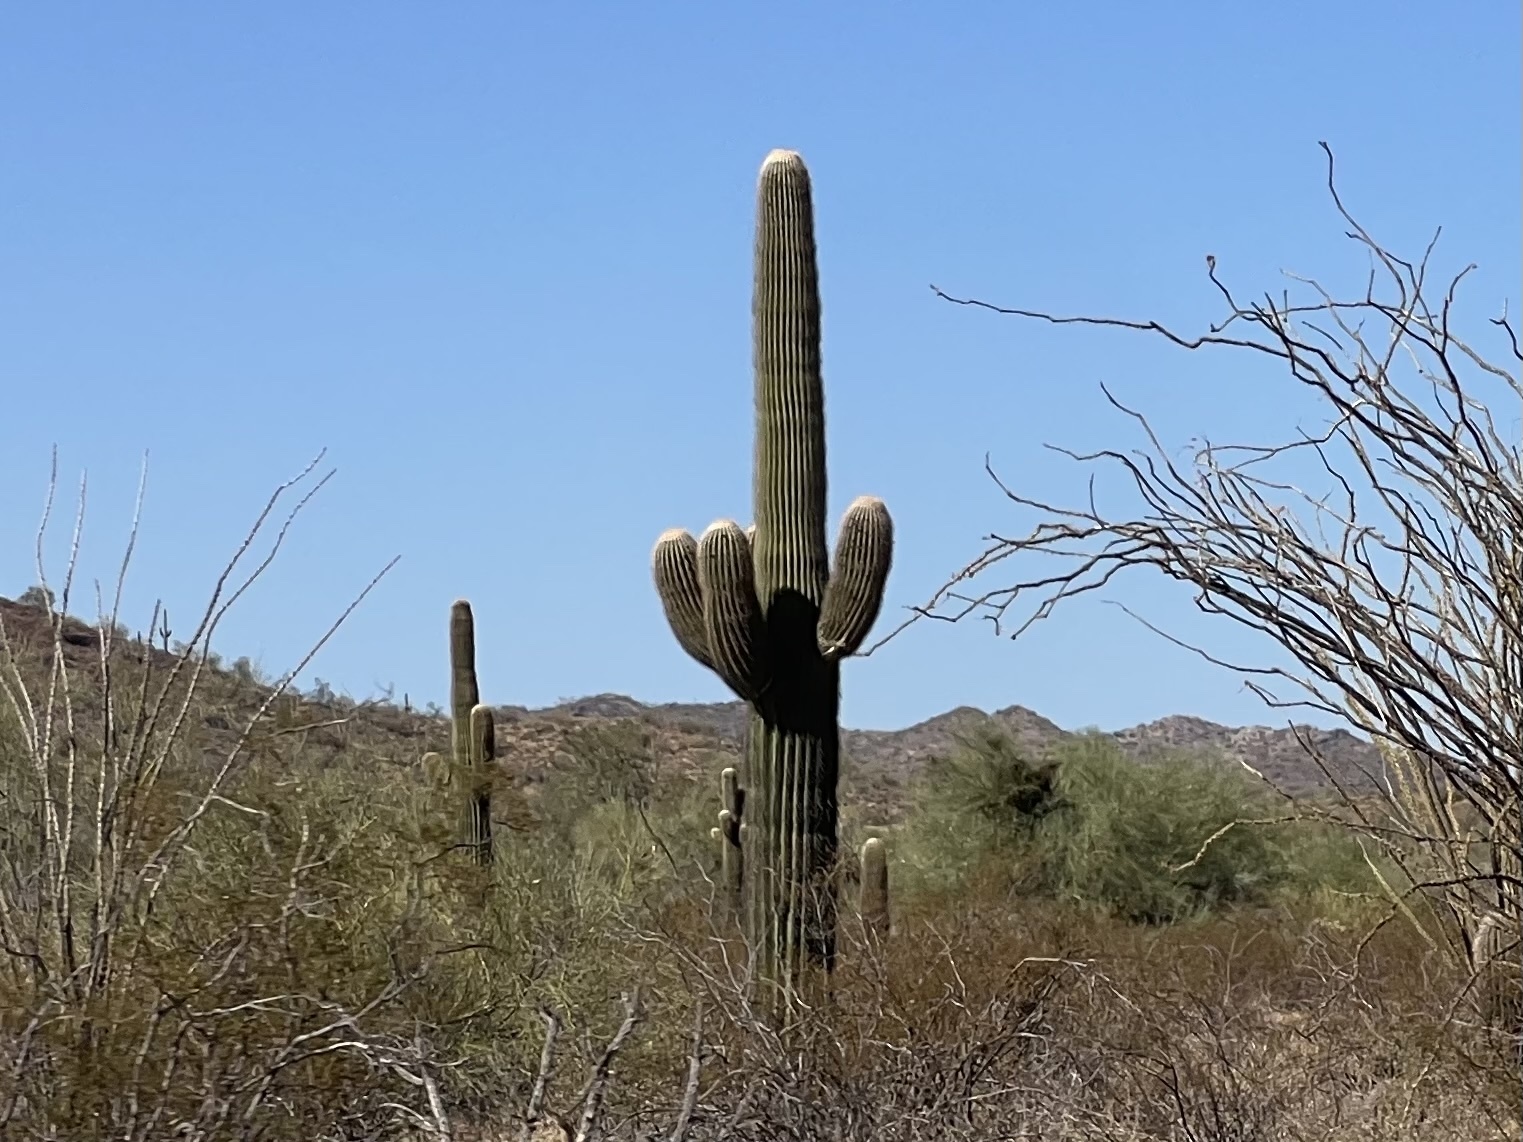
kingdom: Plantae
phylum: Tracheophyta
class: Magnoliopsida
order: Caryophyllales
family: Cactaceae
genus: Carnegiea
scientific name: Carnegiea gigantea
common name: Saguaro
